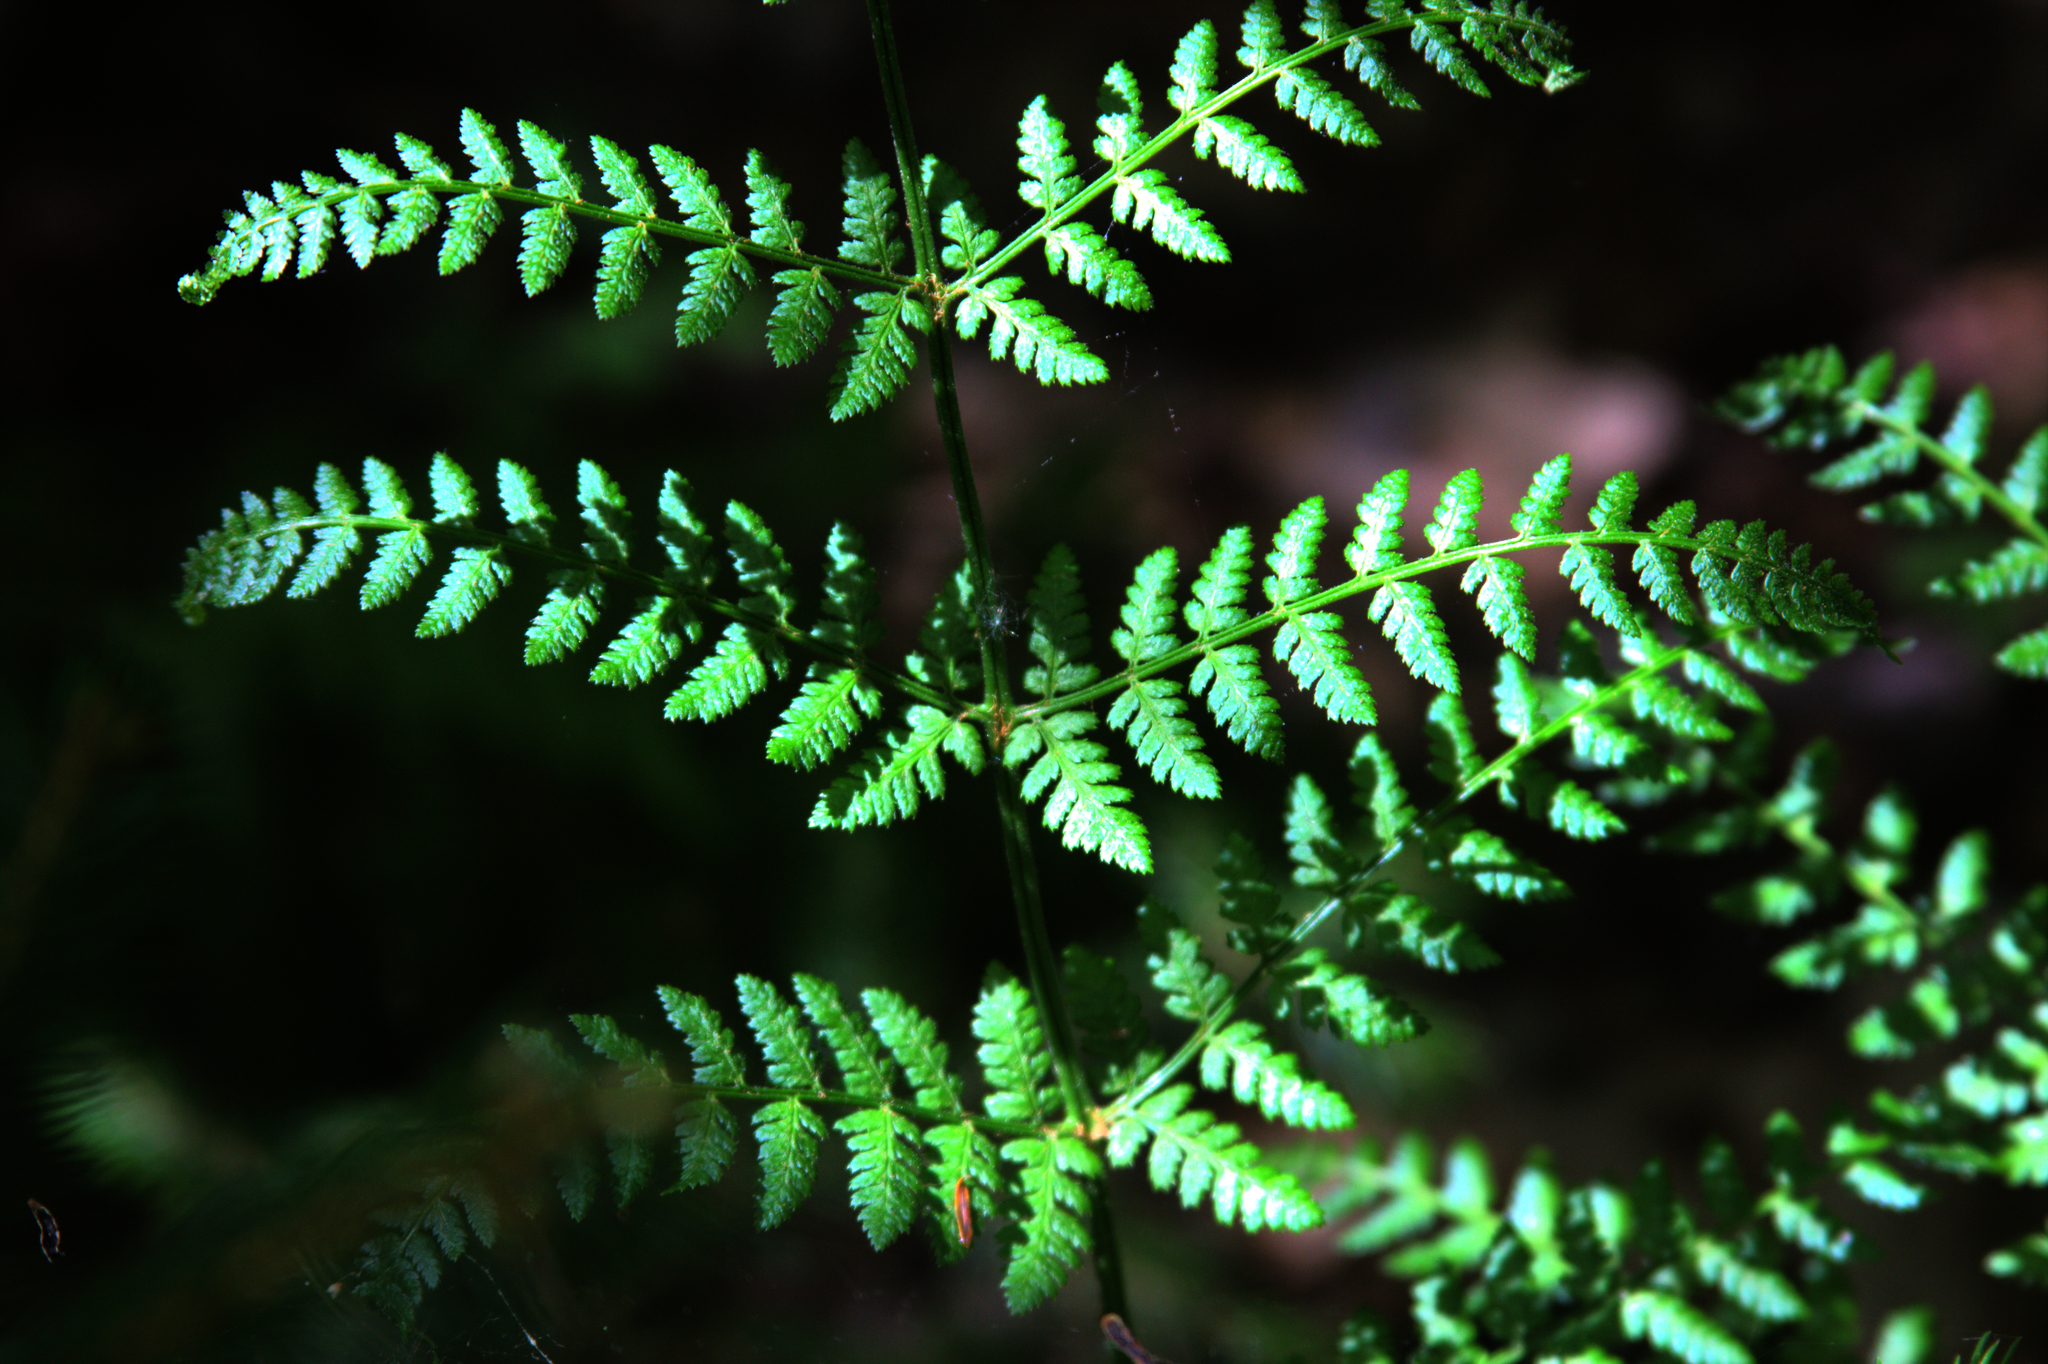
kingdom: Plantae
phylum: Tracheophyta
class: Polypodiopsida
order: Polypodiales
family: Dryopteridaceae
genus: Dryopteris
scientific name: Dryopteris intermedia
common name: Evergreen wood fern
